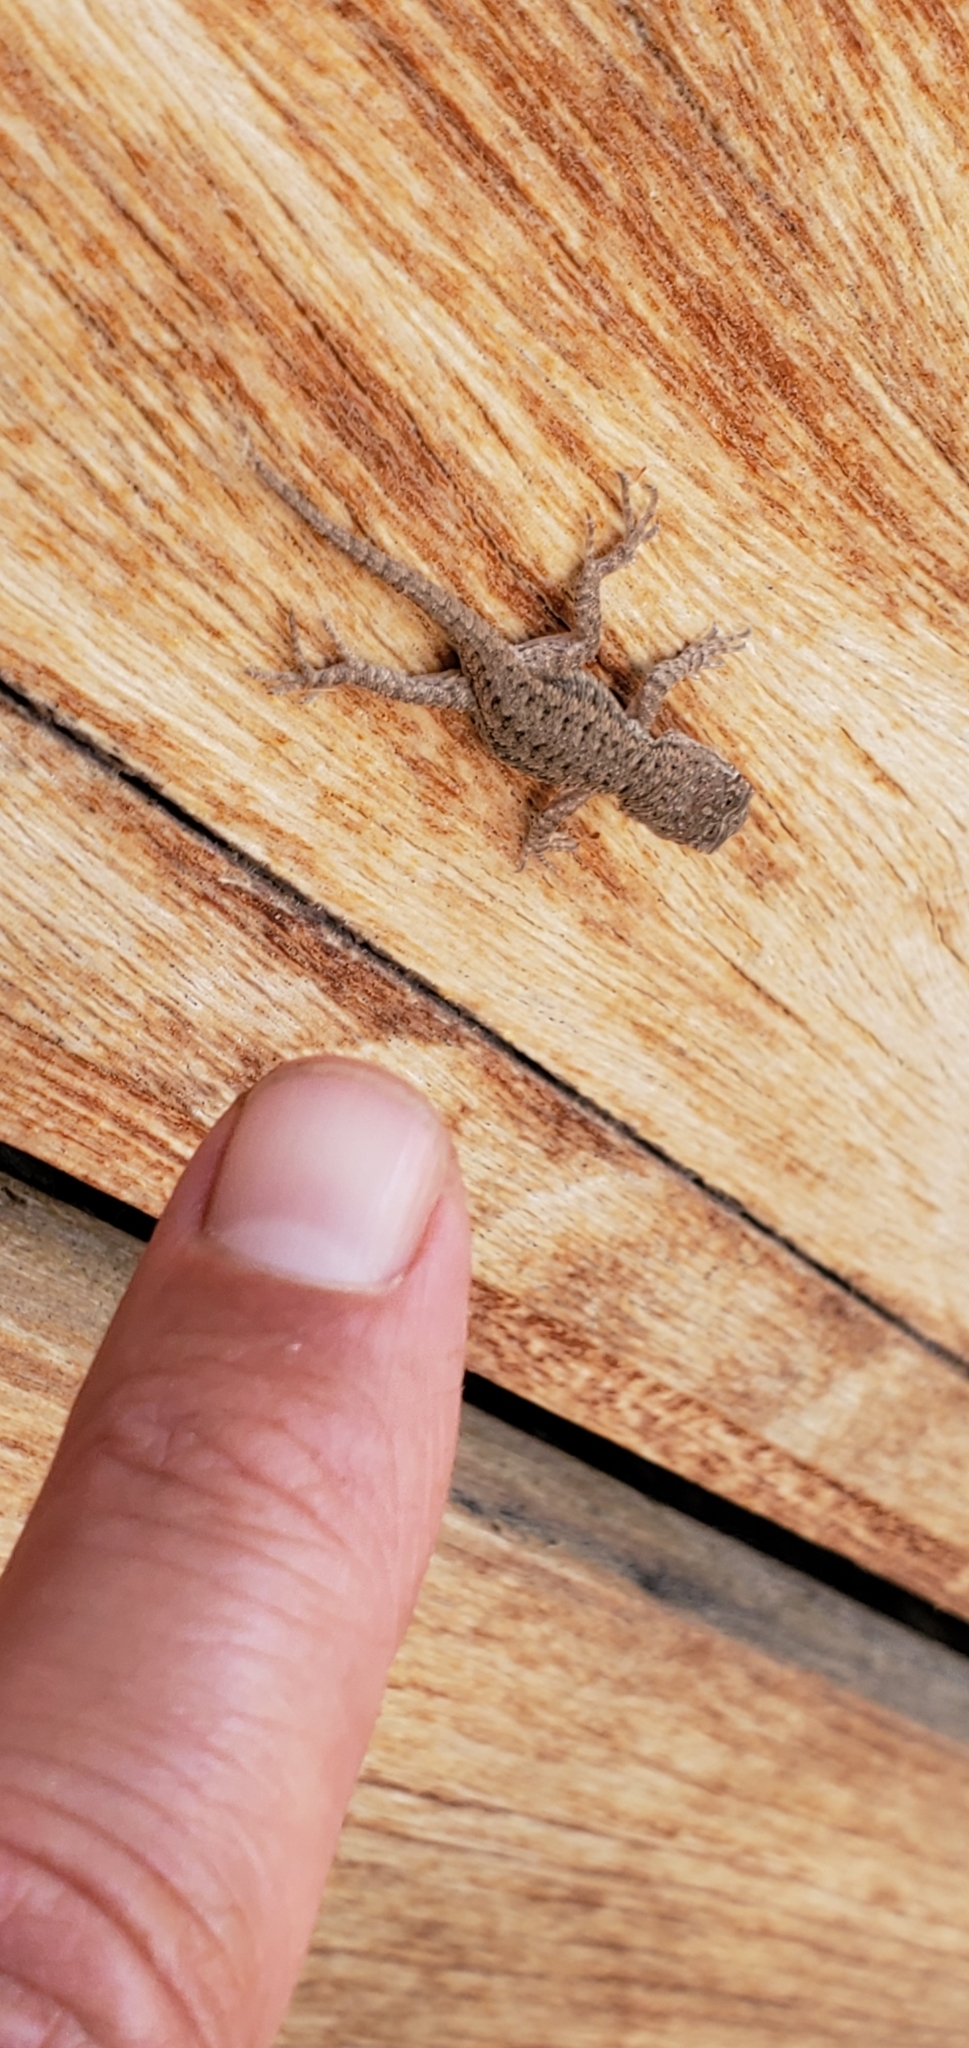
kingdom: Animalia
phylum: Chordata
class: Squamata
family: Phrynosomatidae
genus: Sceloporus
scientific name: Sceloporus occidentalis
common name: Western fence lizard
